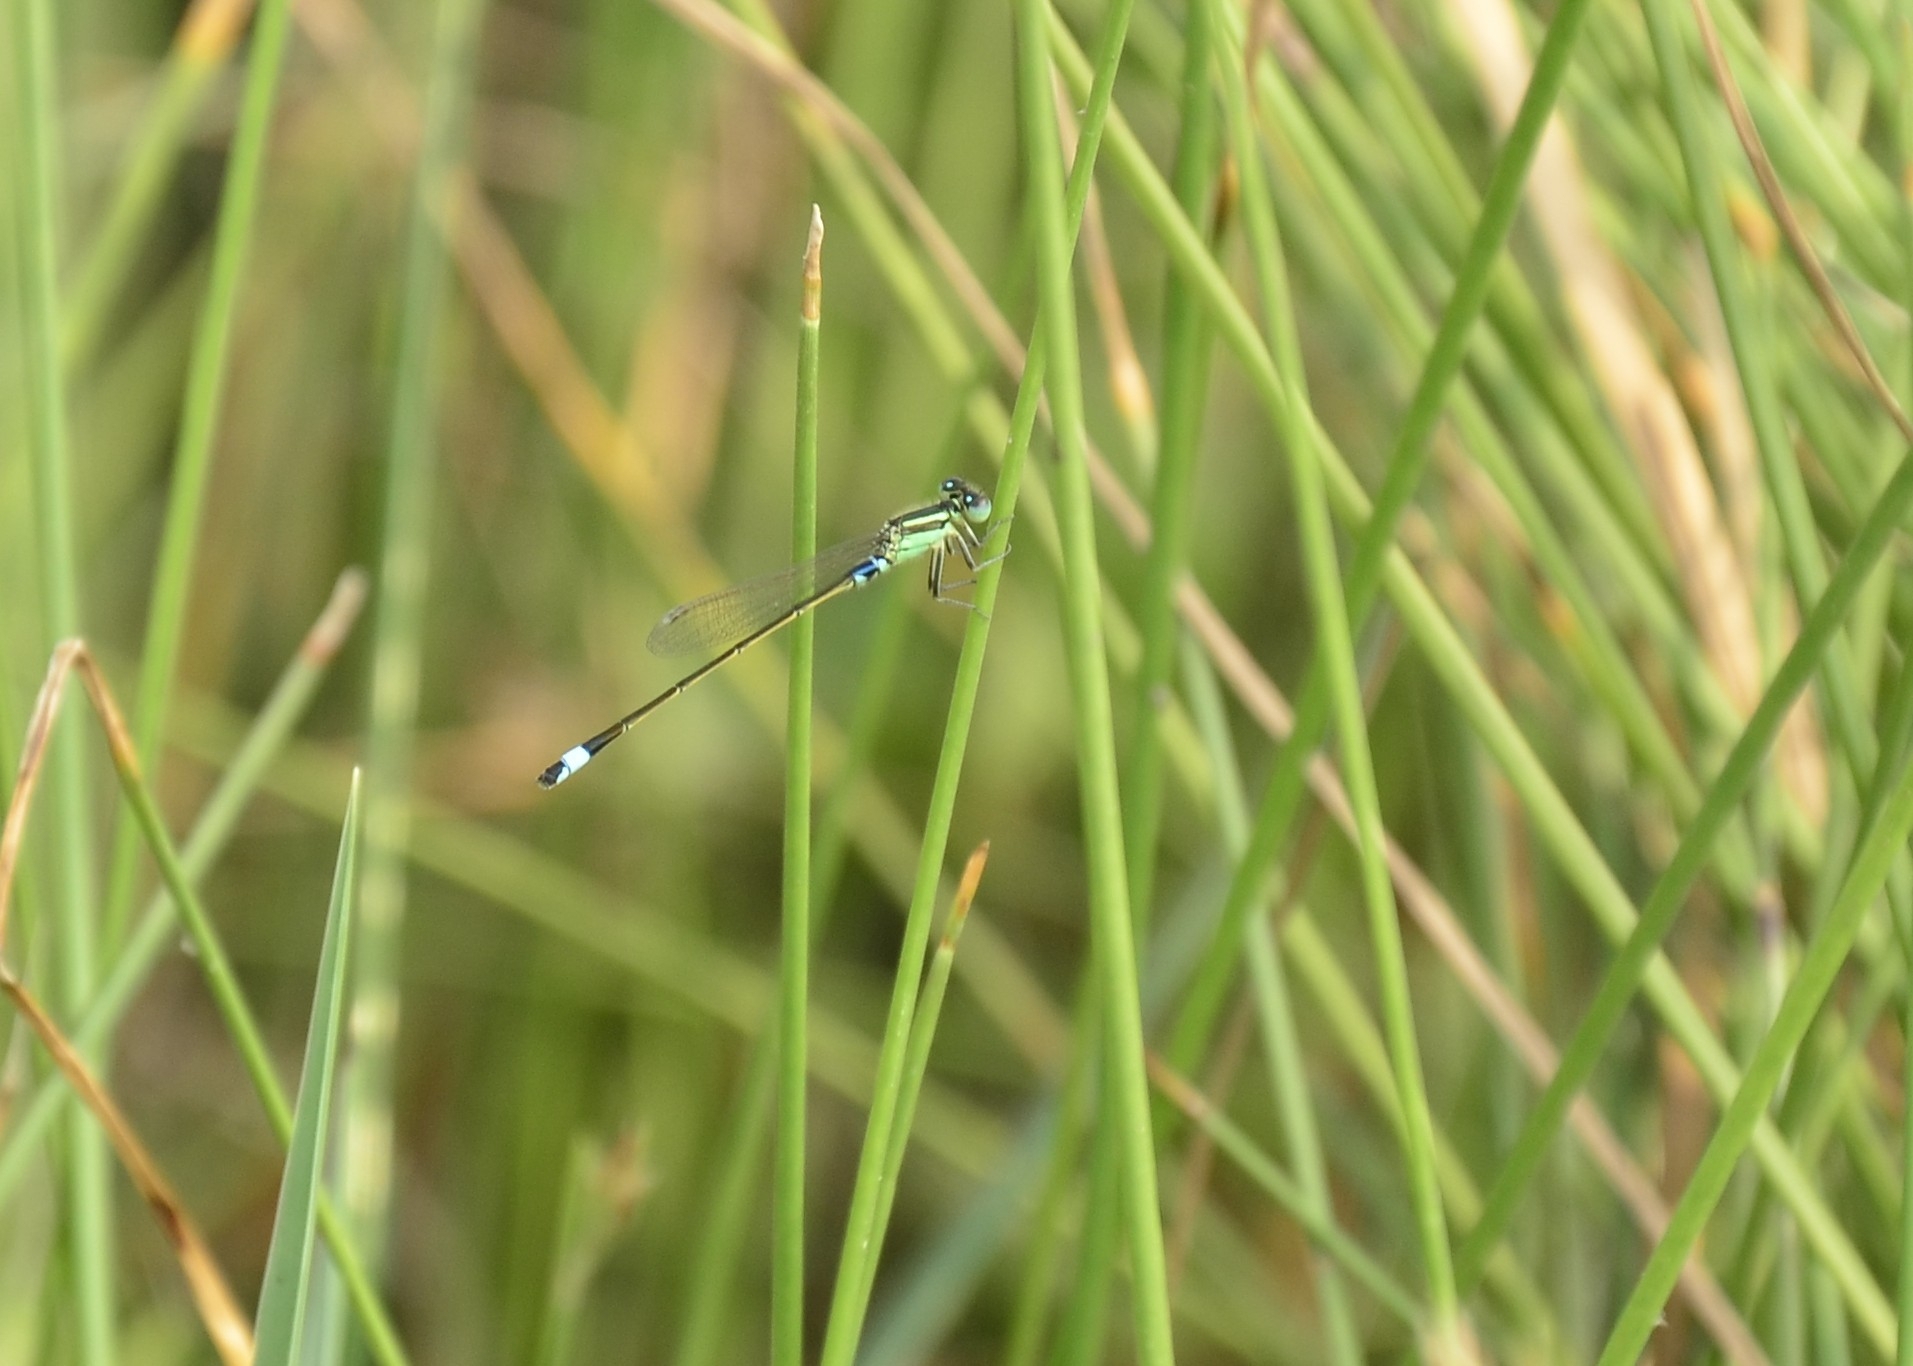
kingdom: Animalia
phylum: Arthropoda
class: Insecta
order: Odonata
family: Coenagrionidae
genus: Ischnura
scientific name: Ischnura senegalensis
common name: Tropical bluetail
